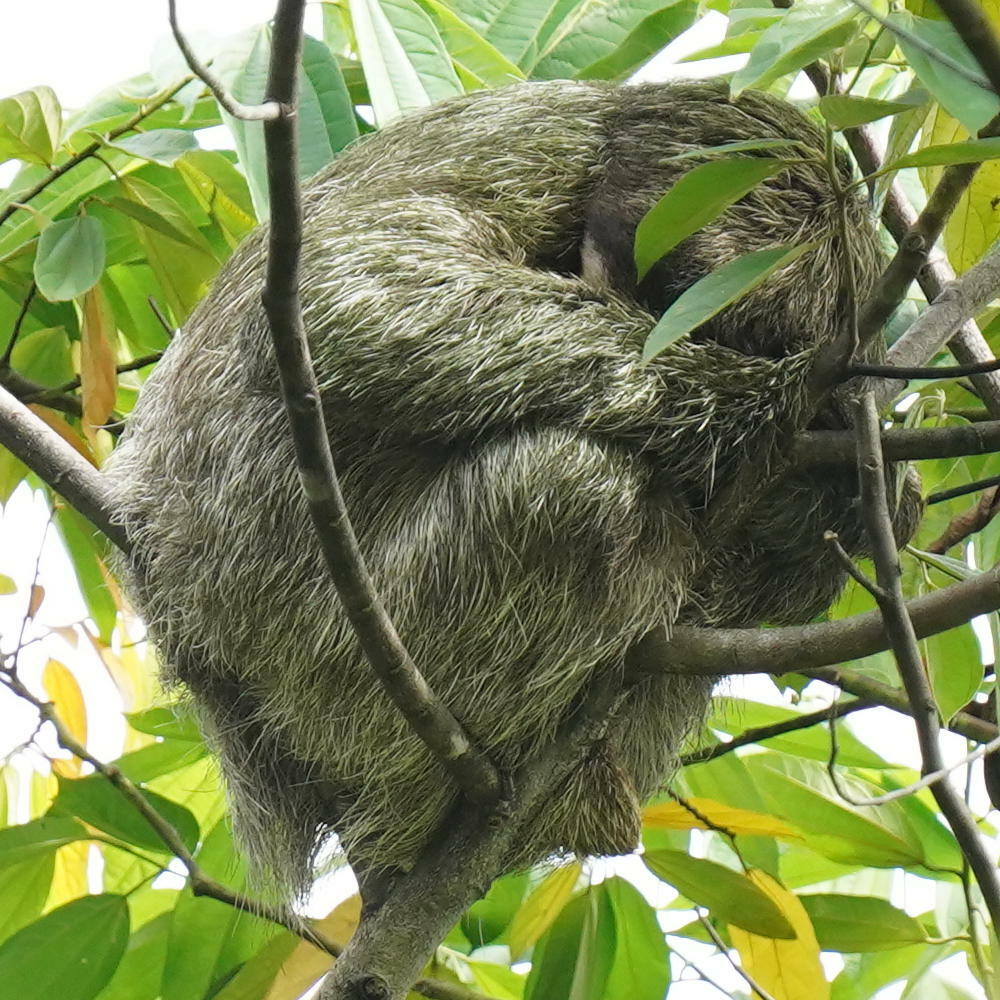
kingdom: Animalia
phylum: Chordata
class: Mammalia
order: Pilosa
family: Bradypodidae
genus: Bradypus
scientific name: Bradypus variegatus
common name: Brown-throated three-toed sloth
